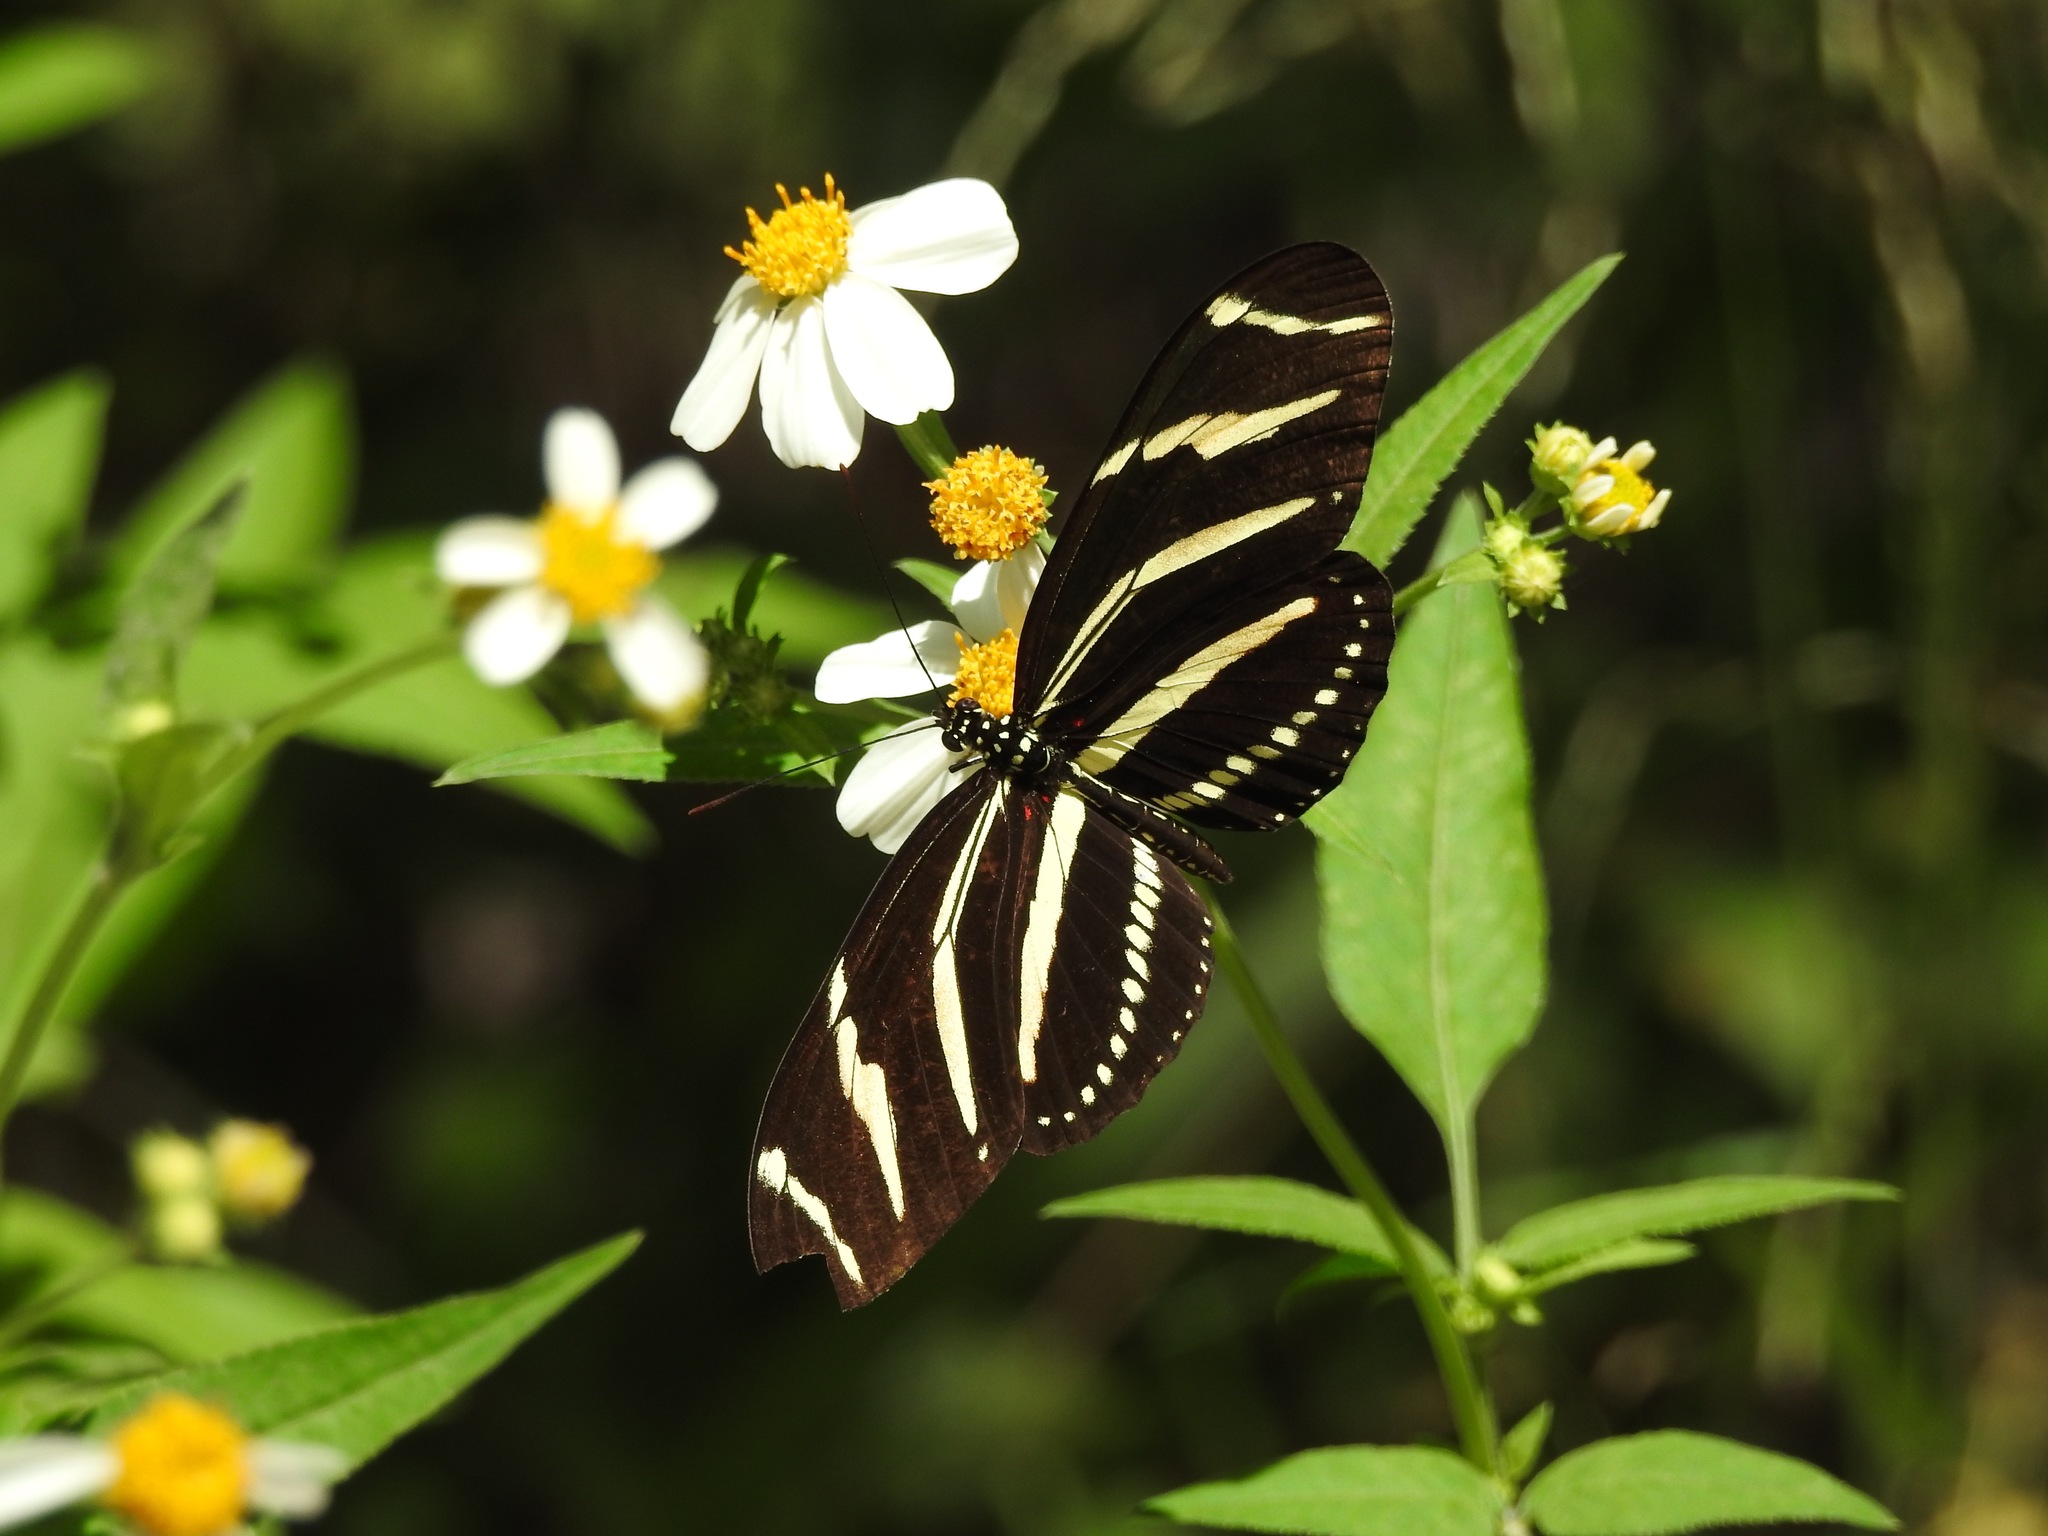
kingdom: Animalia
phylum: Arthropoda
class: Insecta
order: Lepidoptera
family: Nymphalidae
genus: Heliconius
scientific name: Heliconius charithonia
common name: Zebra long wing
